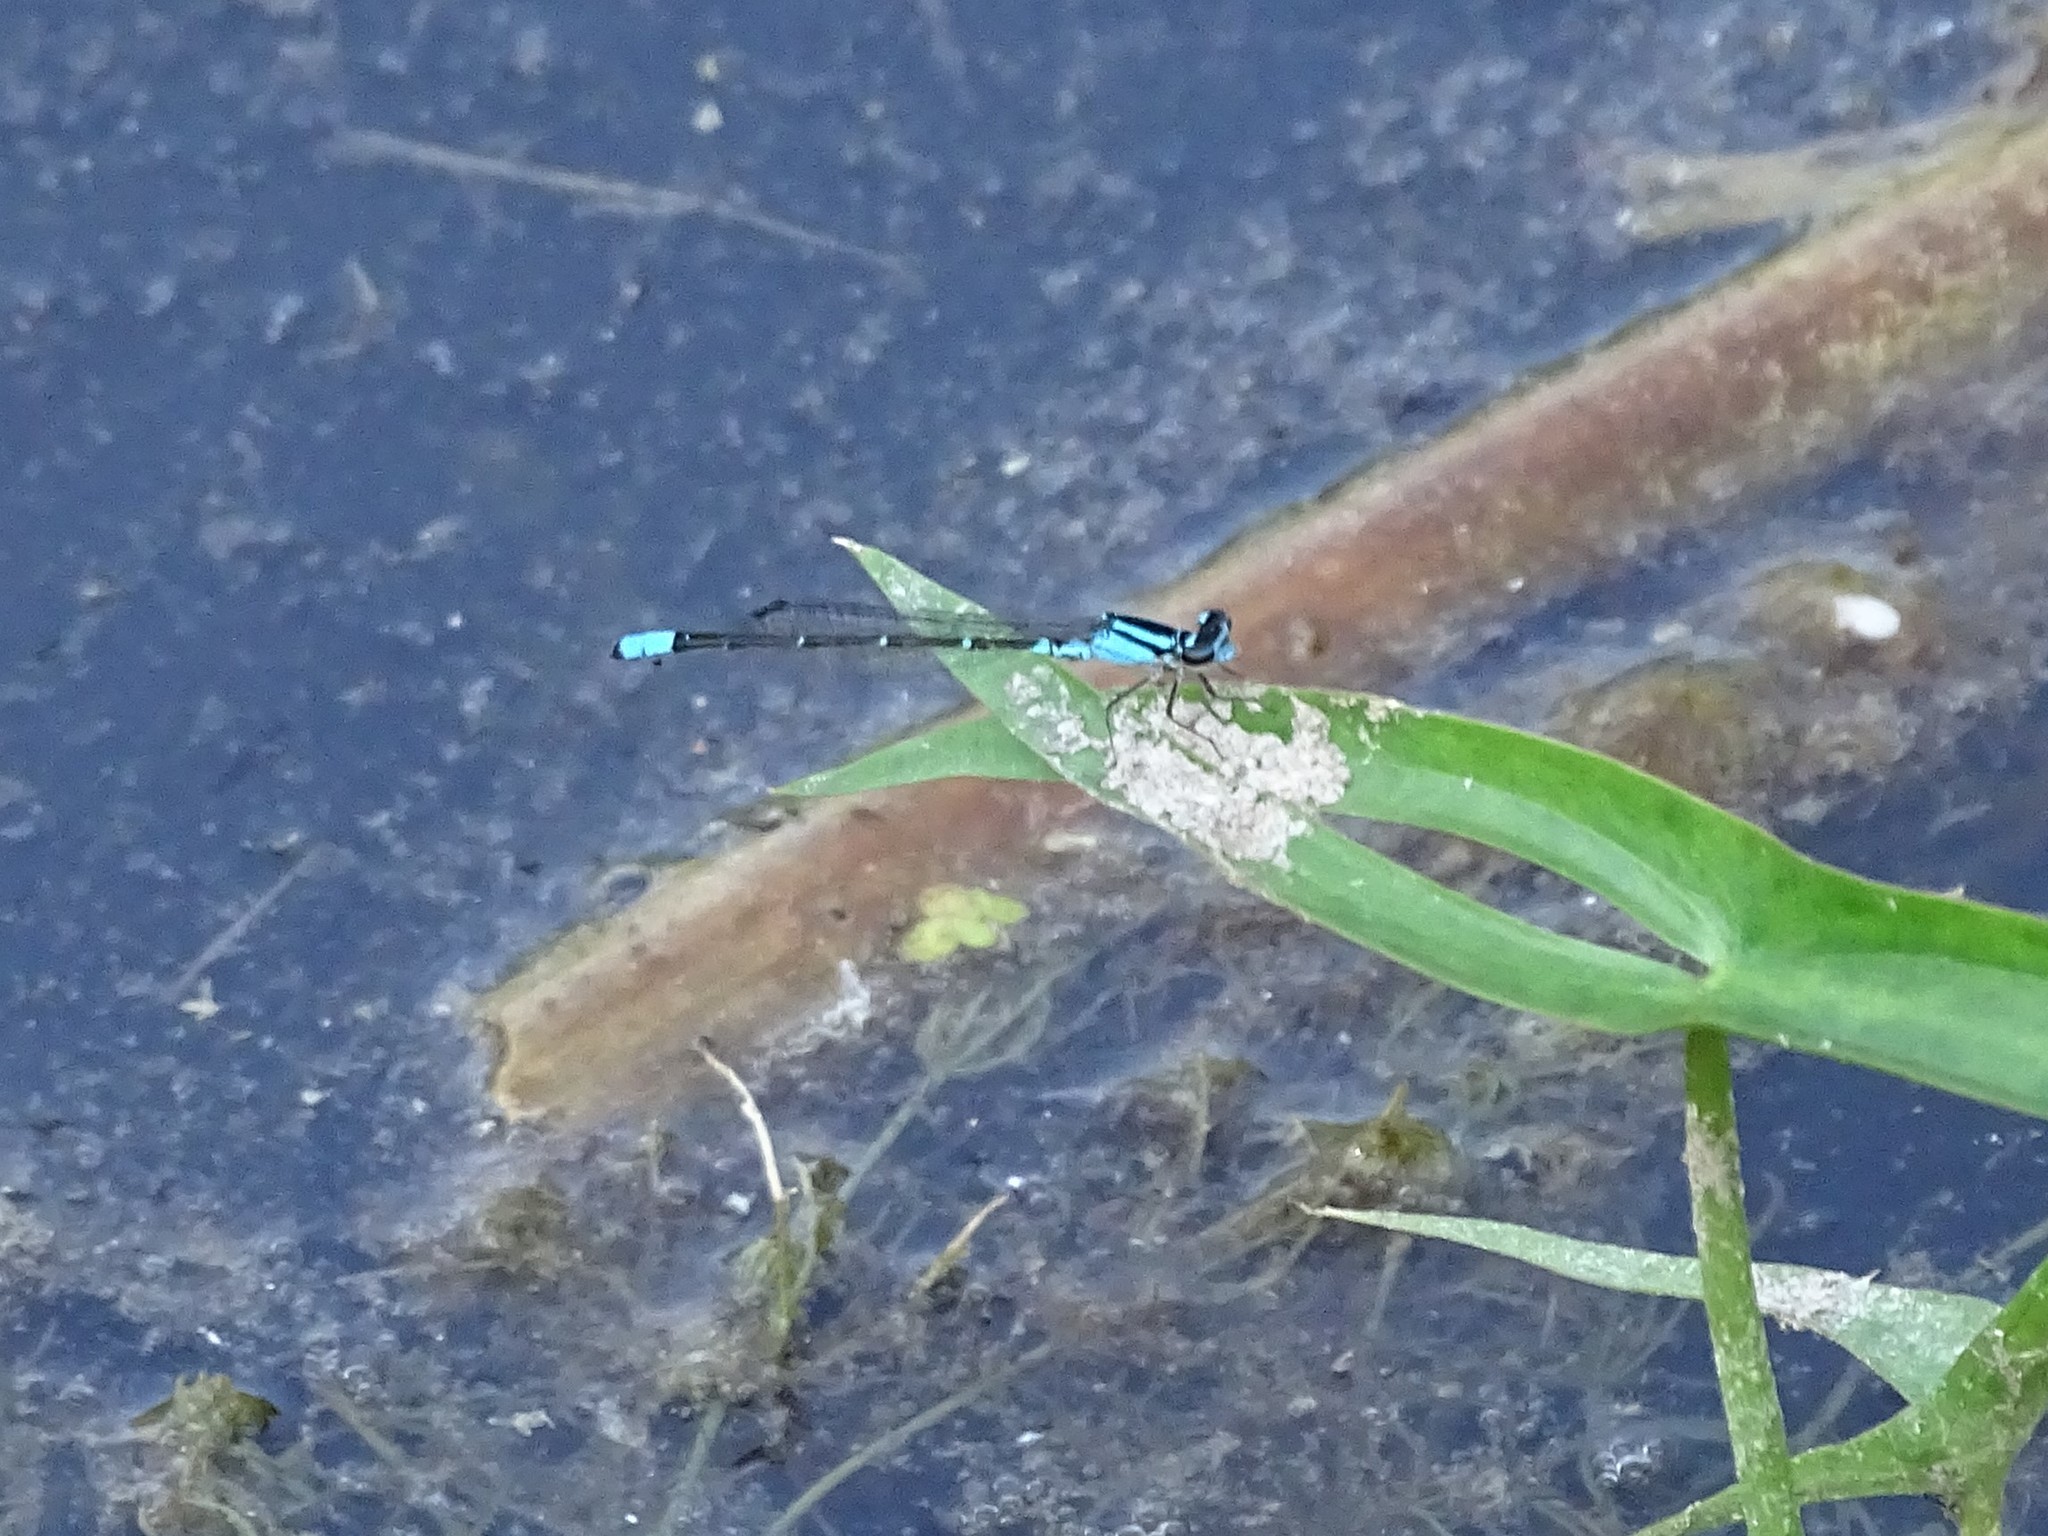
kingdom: Animalia
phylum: Arthropoda
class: Insecta
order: Odonata
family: Coenagrionidae
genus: Enallagma
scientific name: Enallagma geminatum
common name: Skimming bluet
